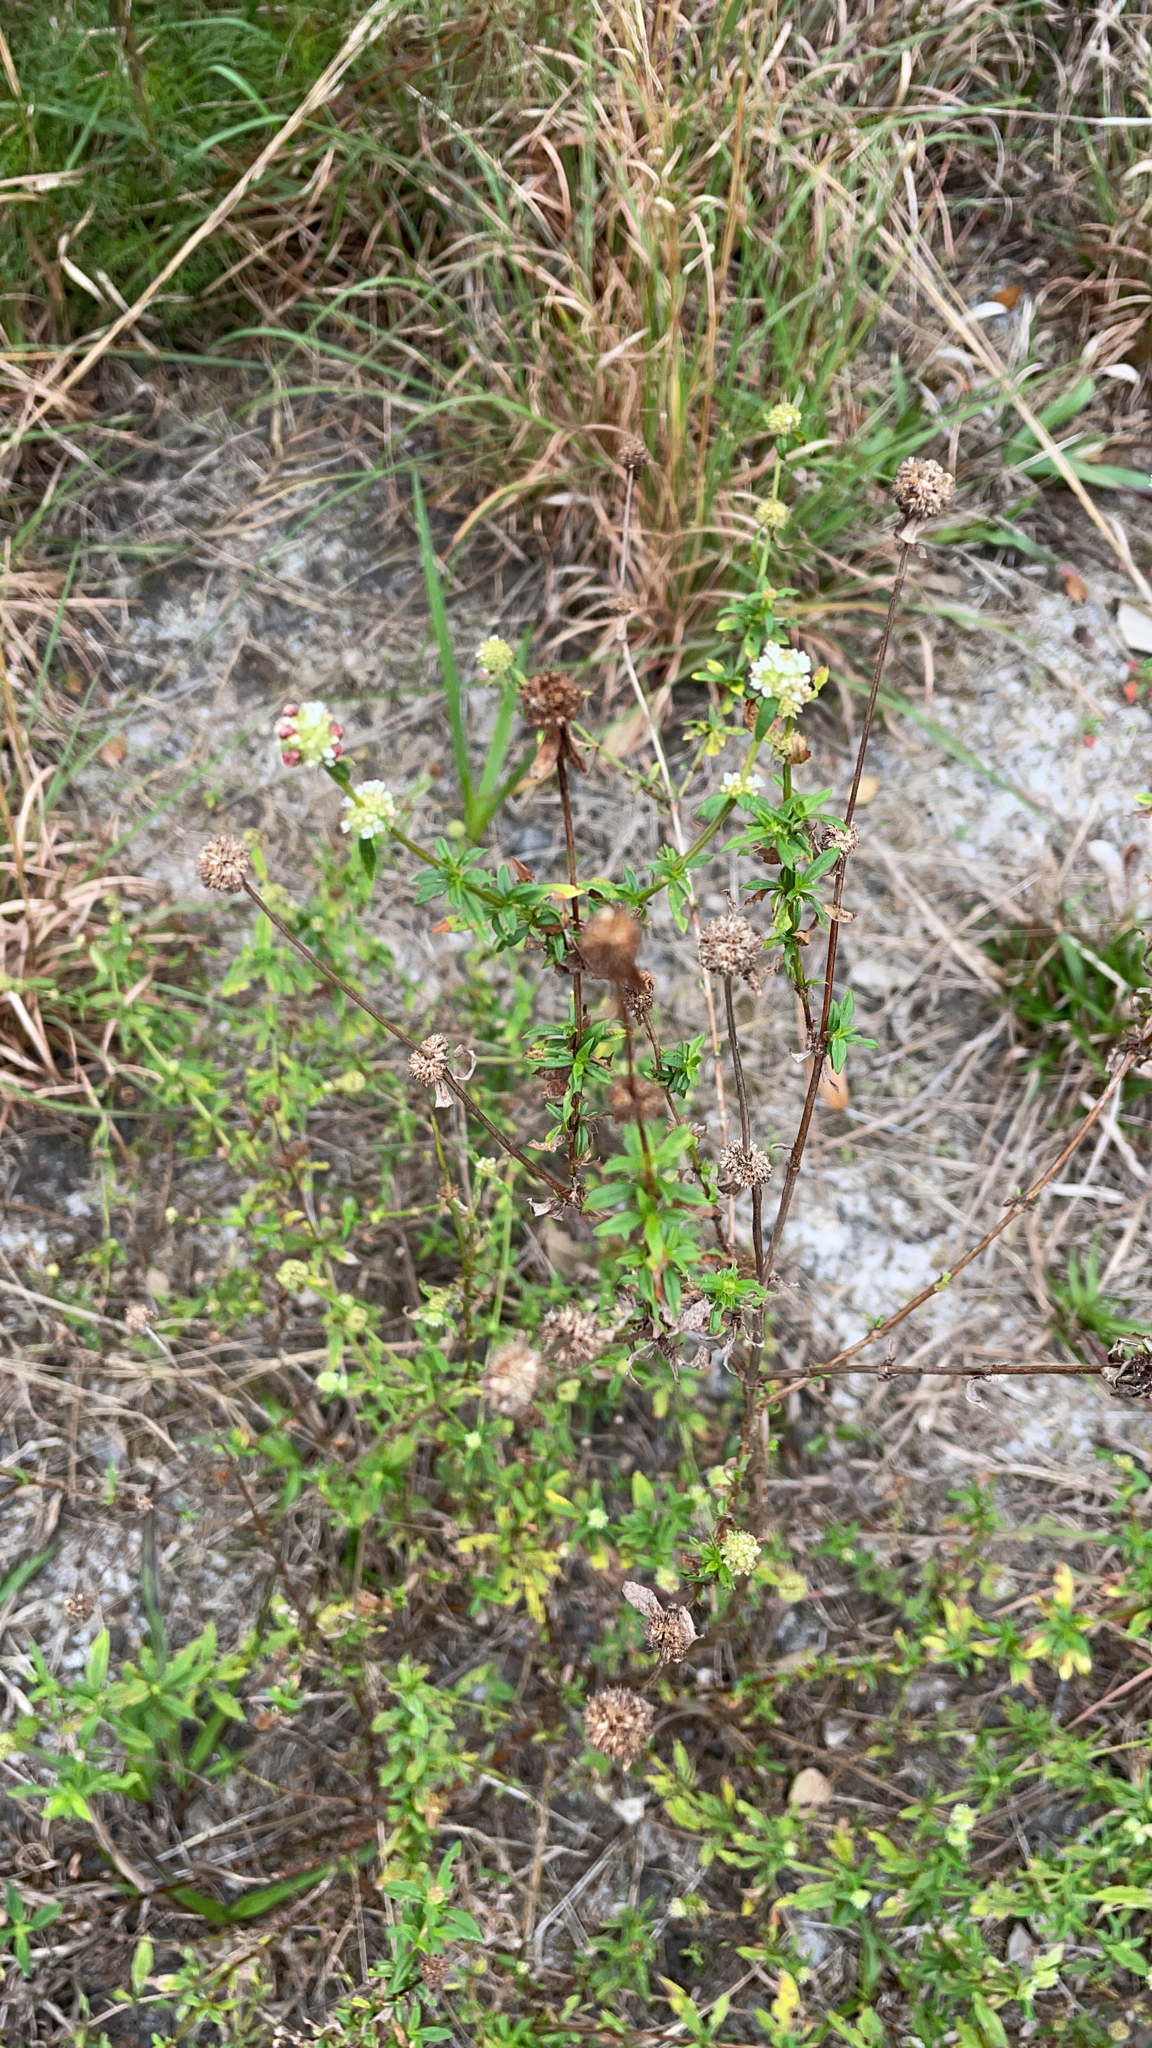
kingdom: Plantae
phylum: Tracheophyta
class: Magnoliopsida
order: Gentianales
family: Rubiaceae
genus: Spermacoce
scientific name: Spermacoce verticillata
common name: Shrubby false buttonweed
